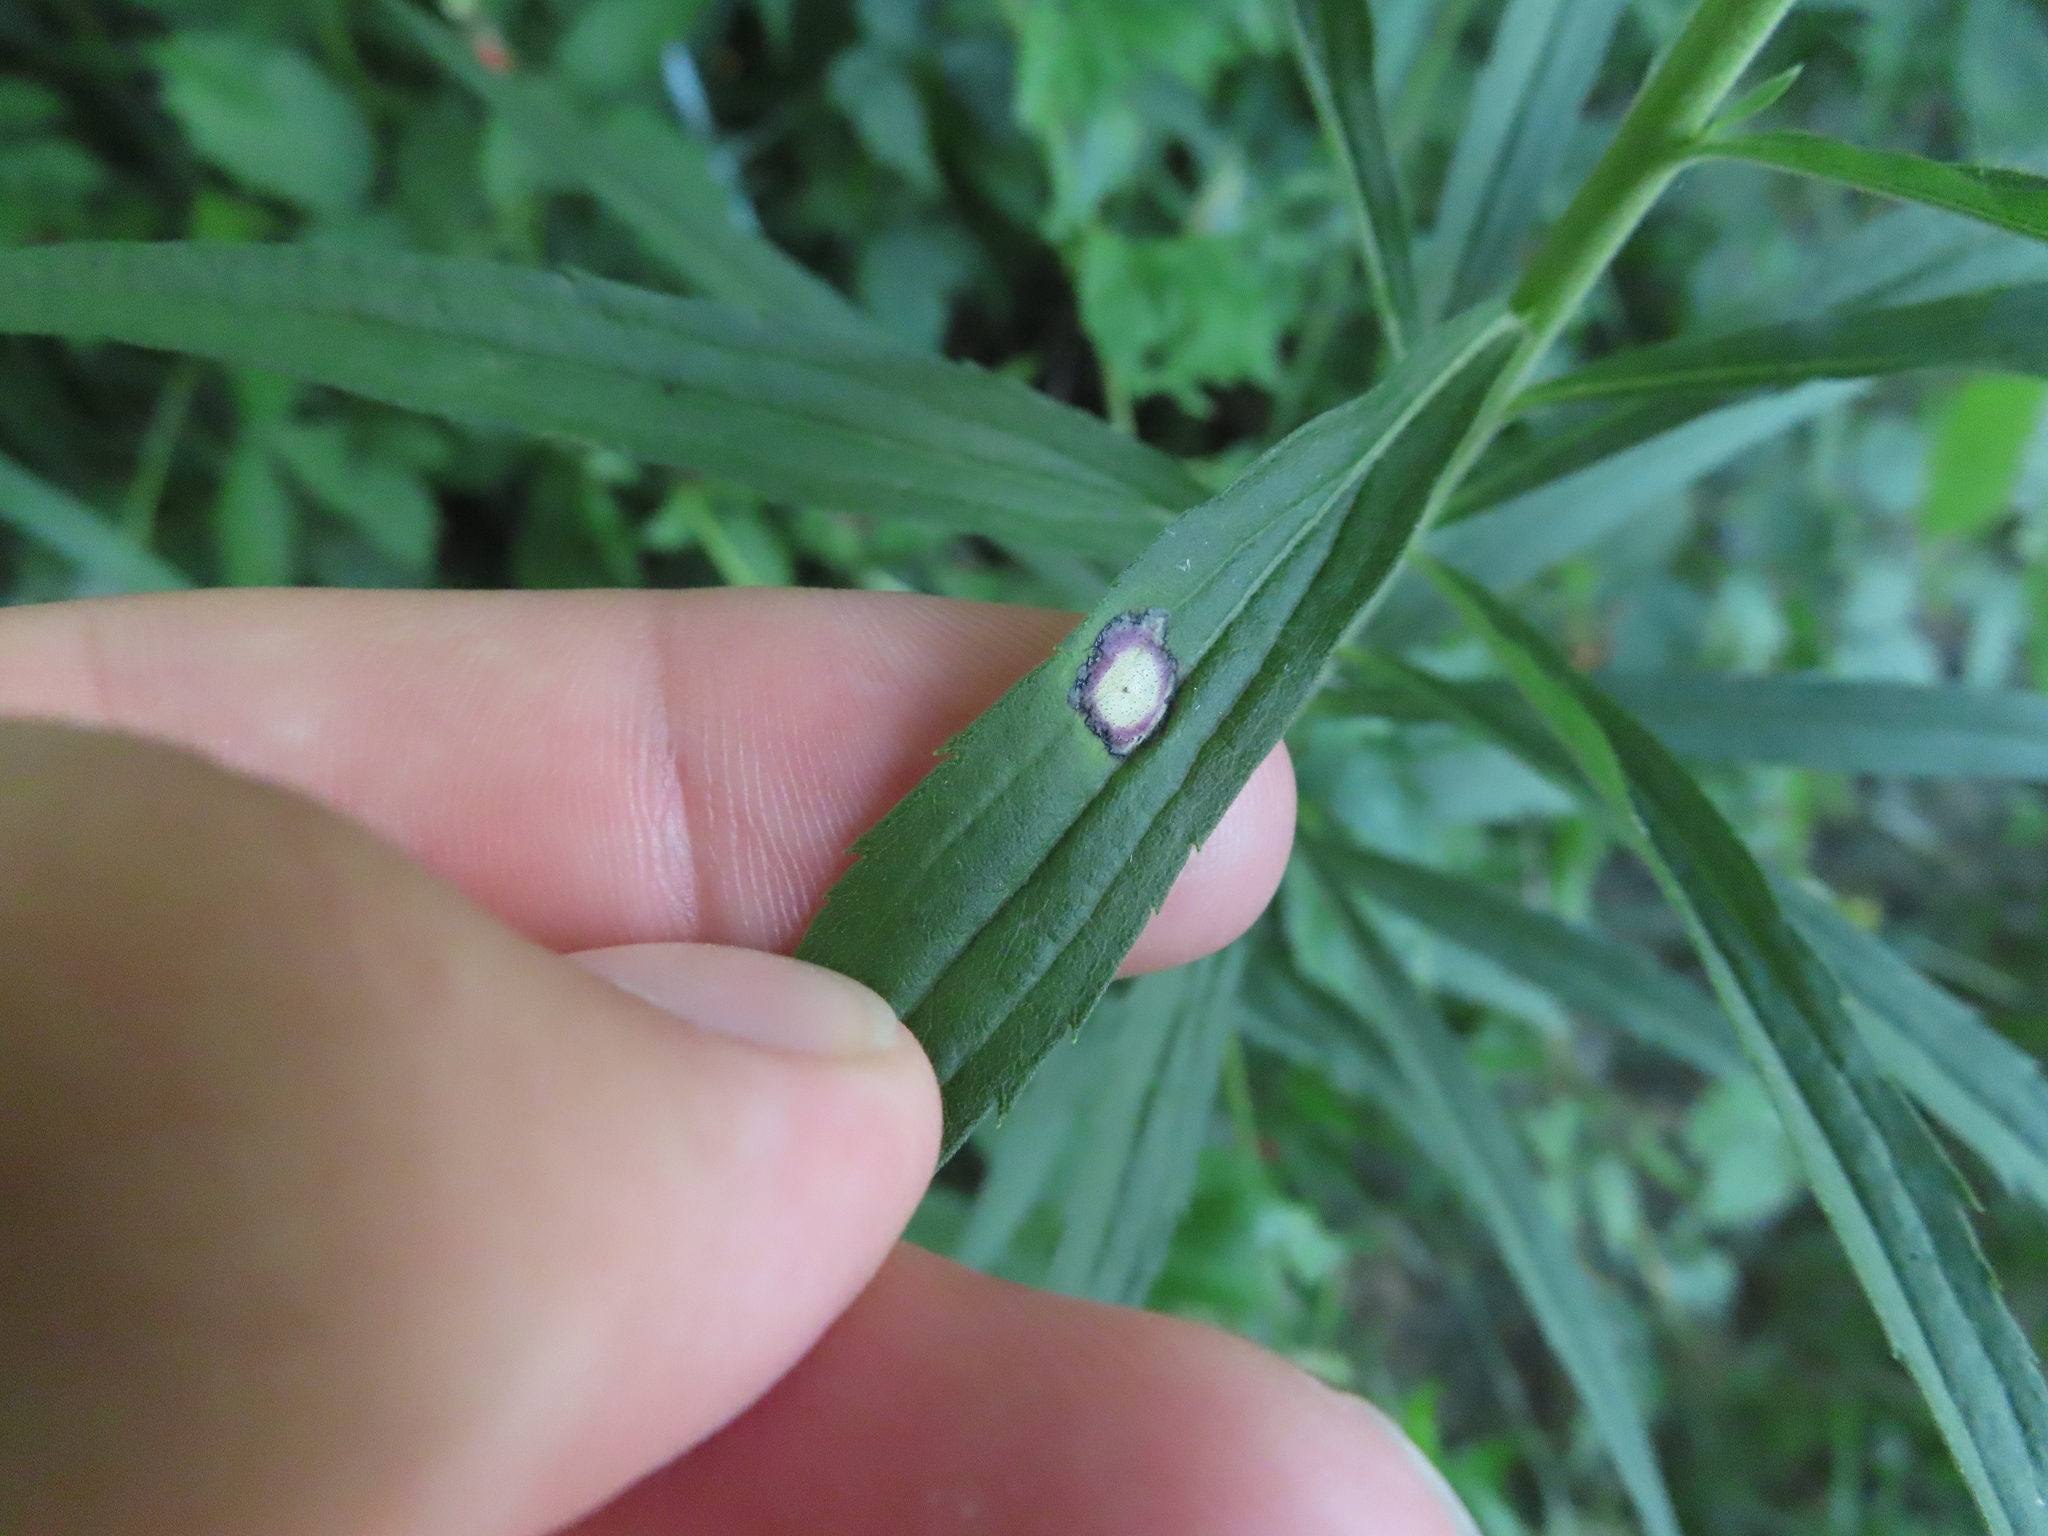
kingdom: Animalia
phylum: Arthropoda
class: Insecta
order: Diptera
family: Cecidomyiidae
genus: Asteromyia
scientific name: Asteromyia carbonifera
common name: Carbonifera goldenrod gall midge
